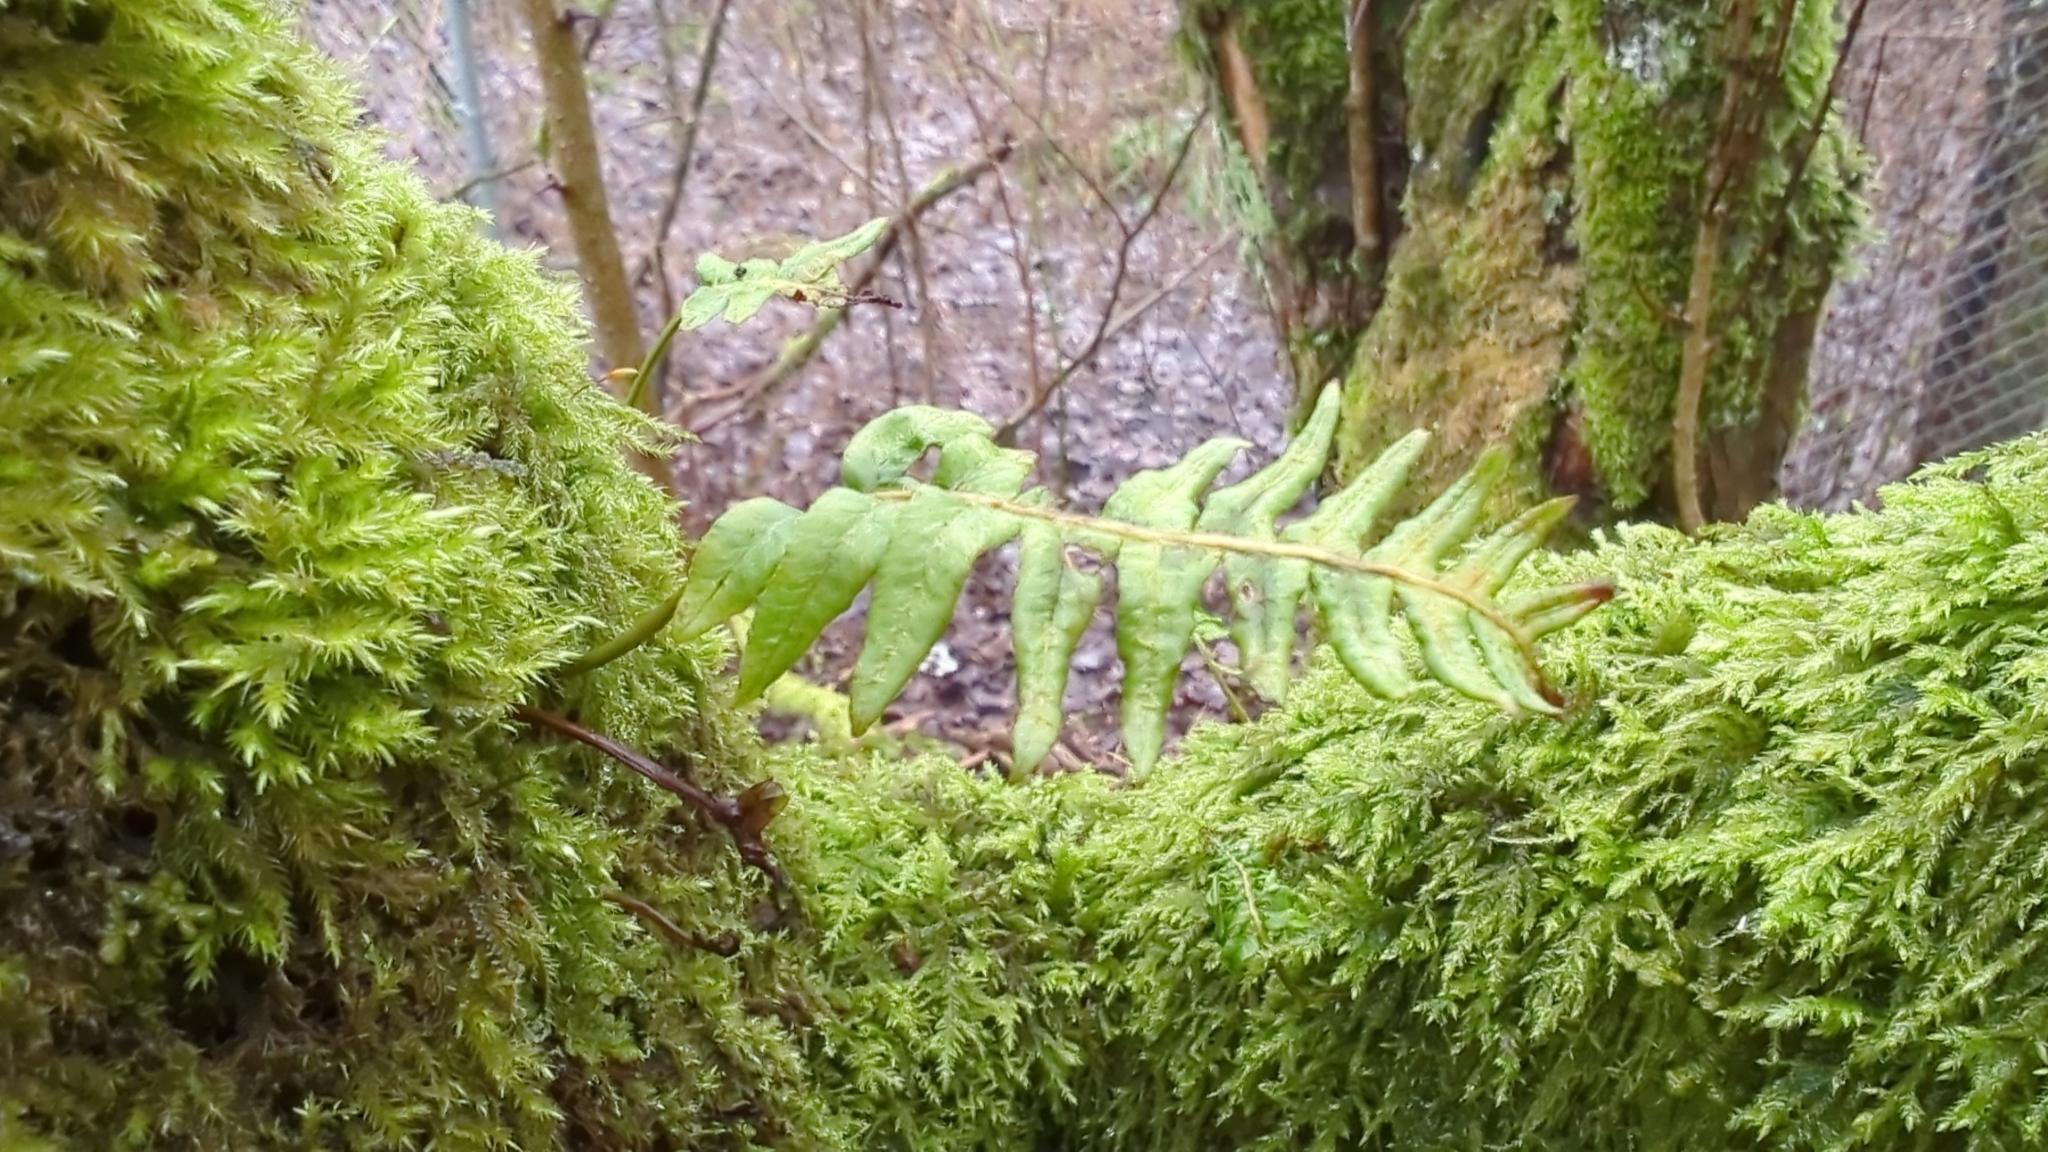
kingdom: Plantae
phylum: Tracheophyta
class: Polypodiopsida
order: Polypodiales
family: Polypodiaceae
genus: Polypodium
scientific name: Polypodium glycyrrhiza
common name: Licorice fern
